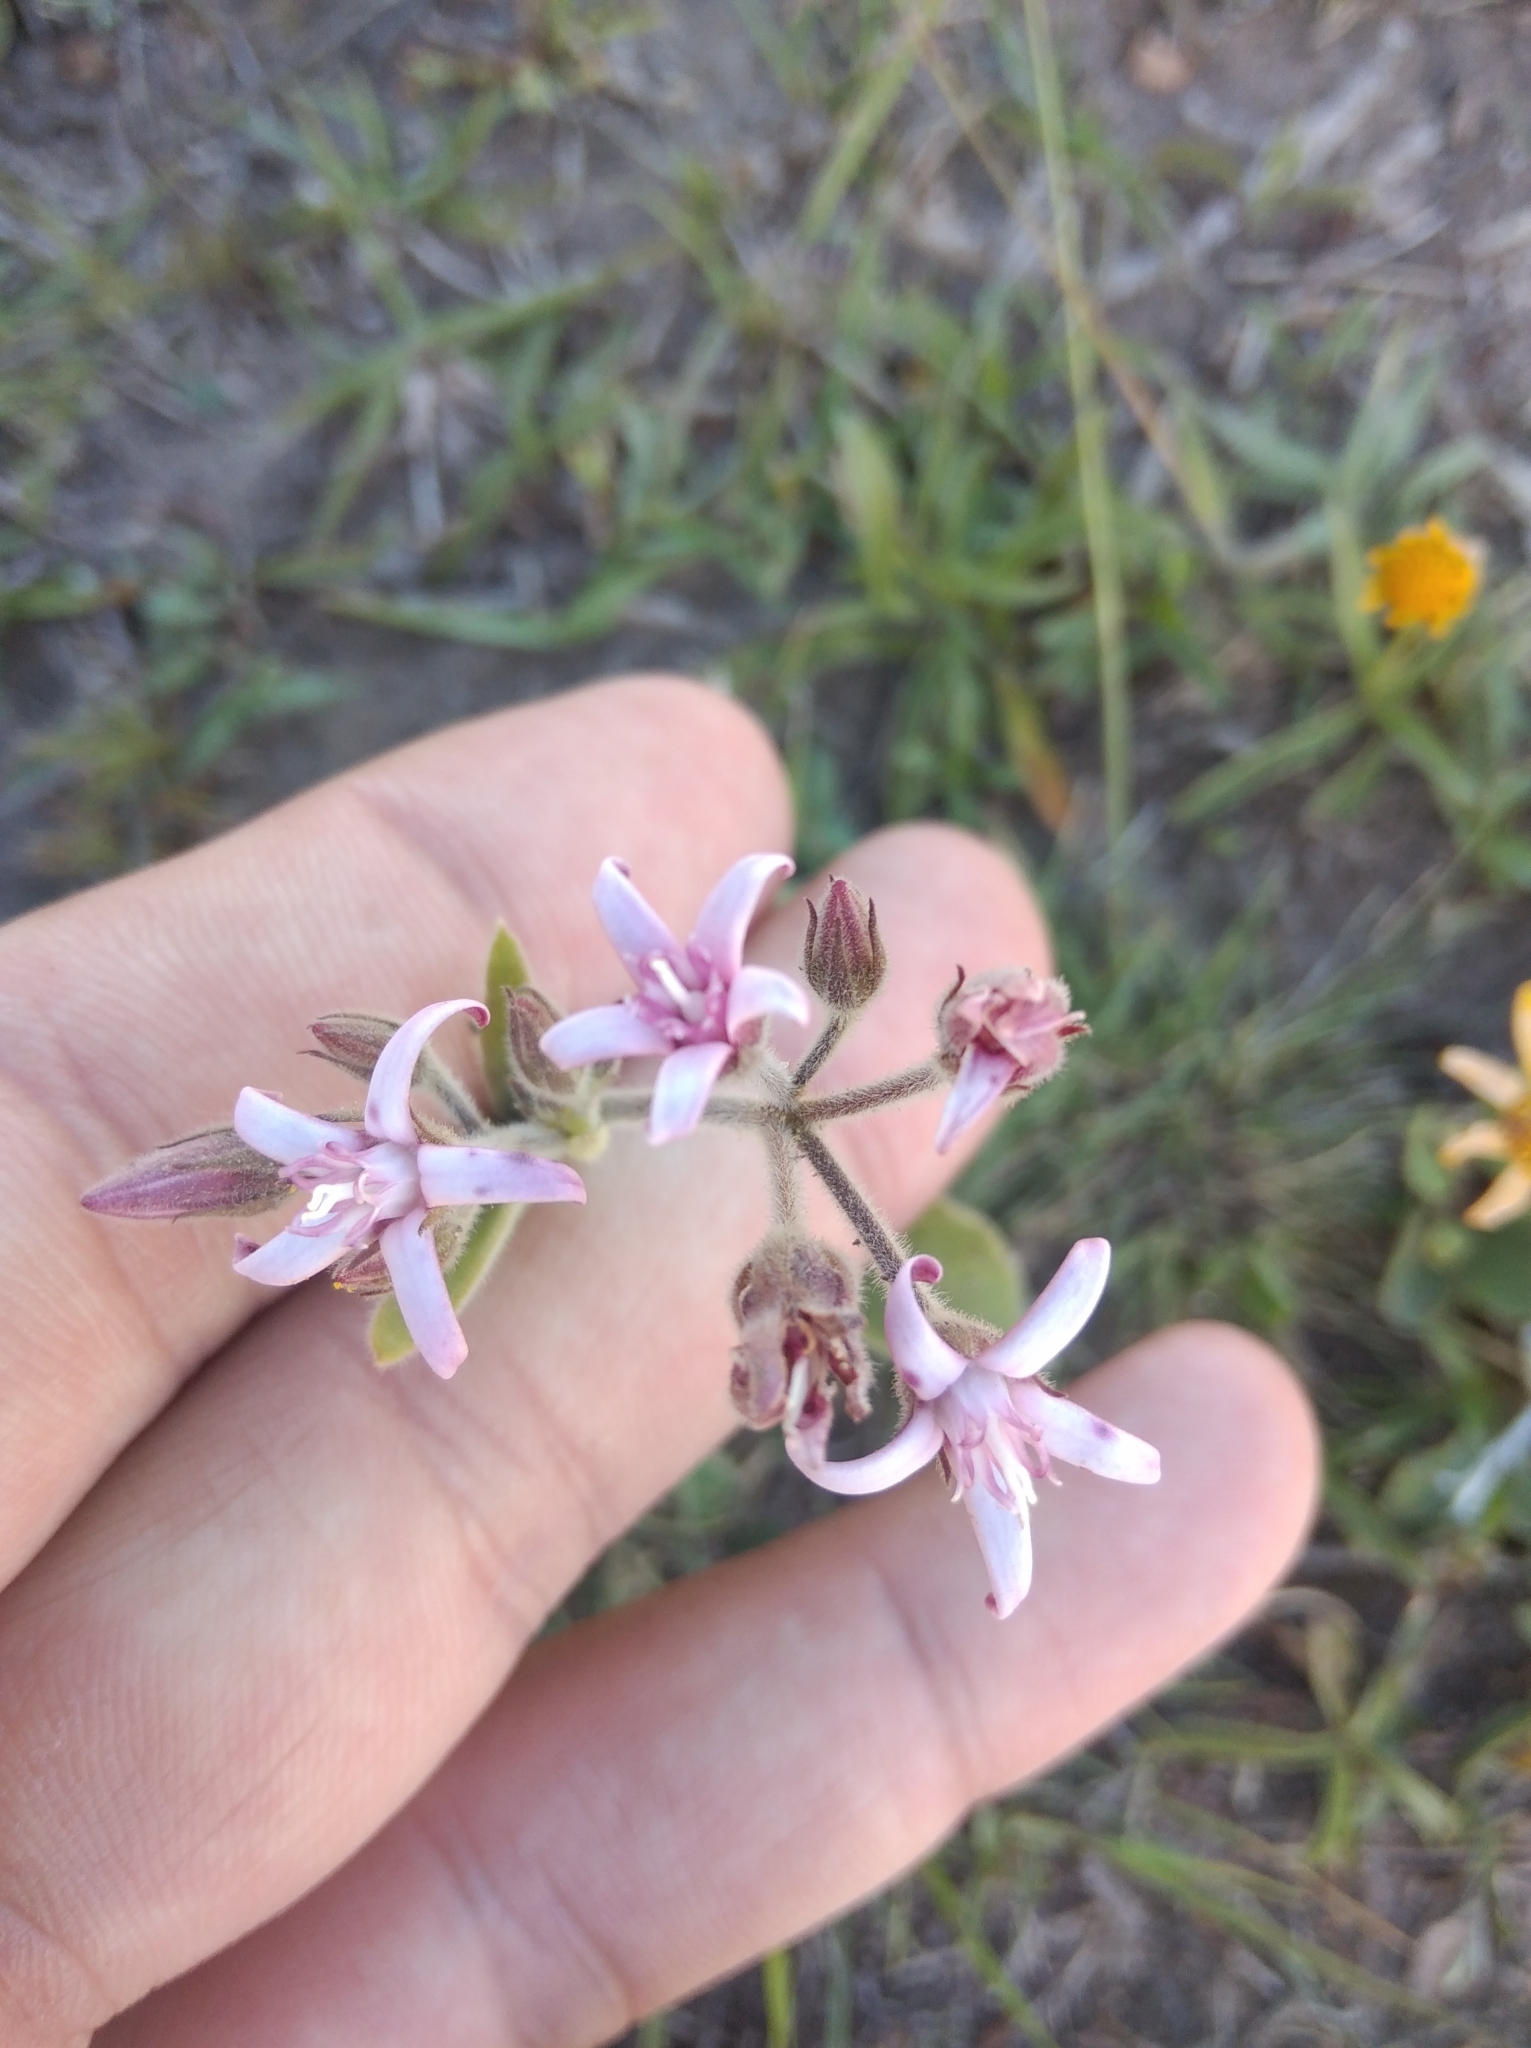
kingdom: Plantae
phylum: Tracheophyta
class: Magnoliopsida
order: Gentianales
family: Apocynaceae
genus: Oxypetalum
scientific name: Oxypetalum solanoides
